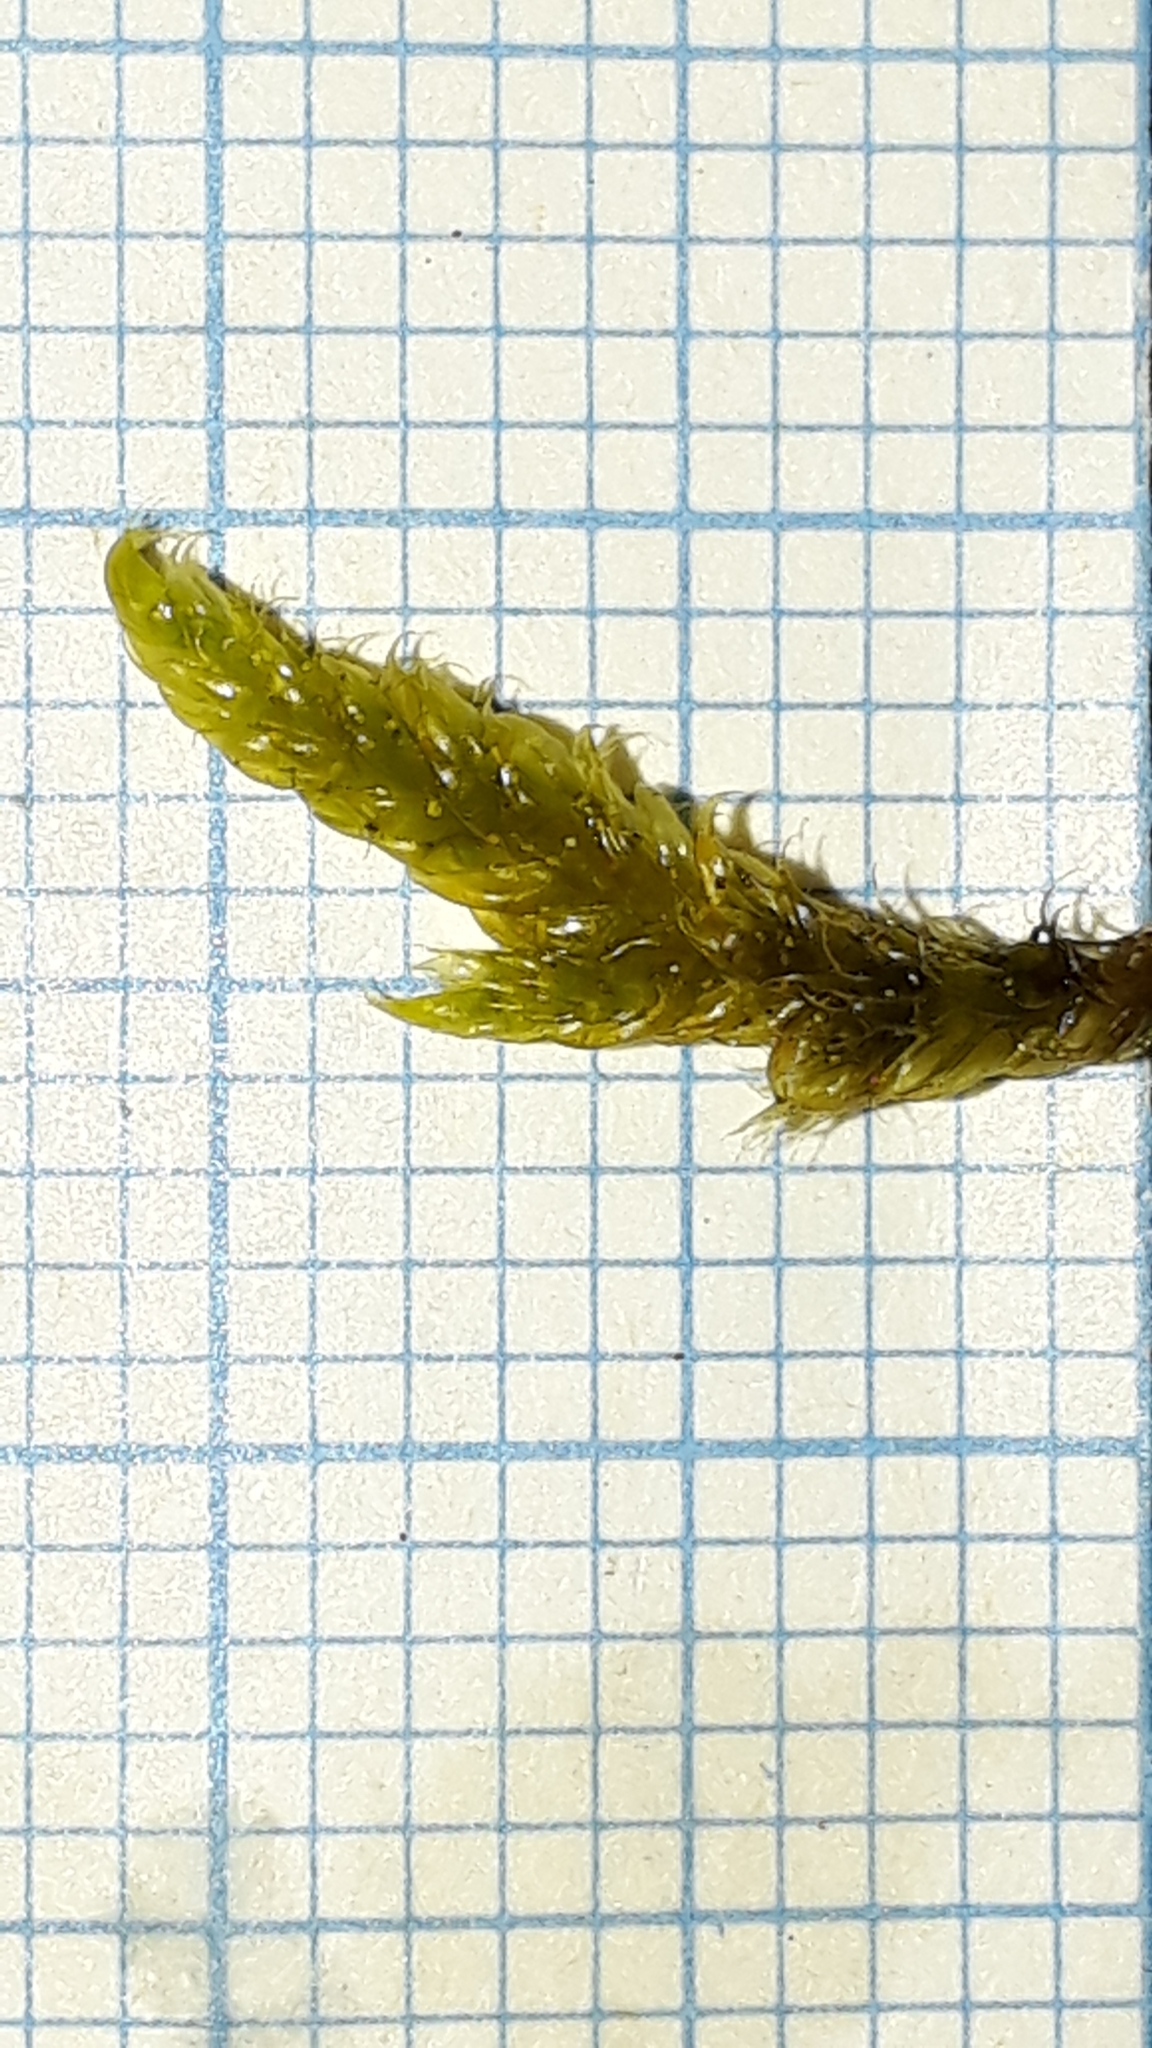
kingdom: Plantae
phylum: Bryophyta
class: Bryopsida
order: Hypnales
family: Hypnaceae
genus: Hypnum
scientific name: Hypnum cupressiforme
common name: Cypress-leaved plait-moss
